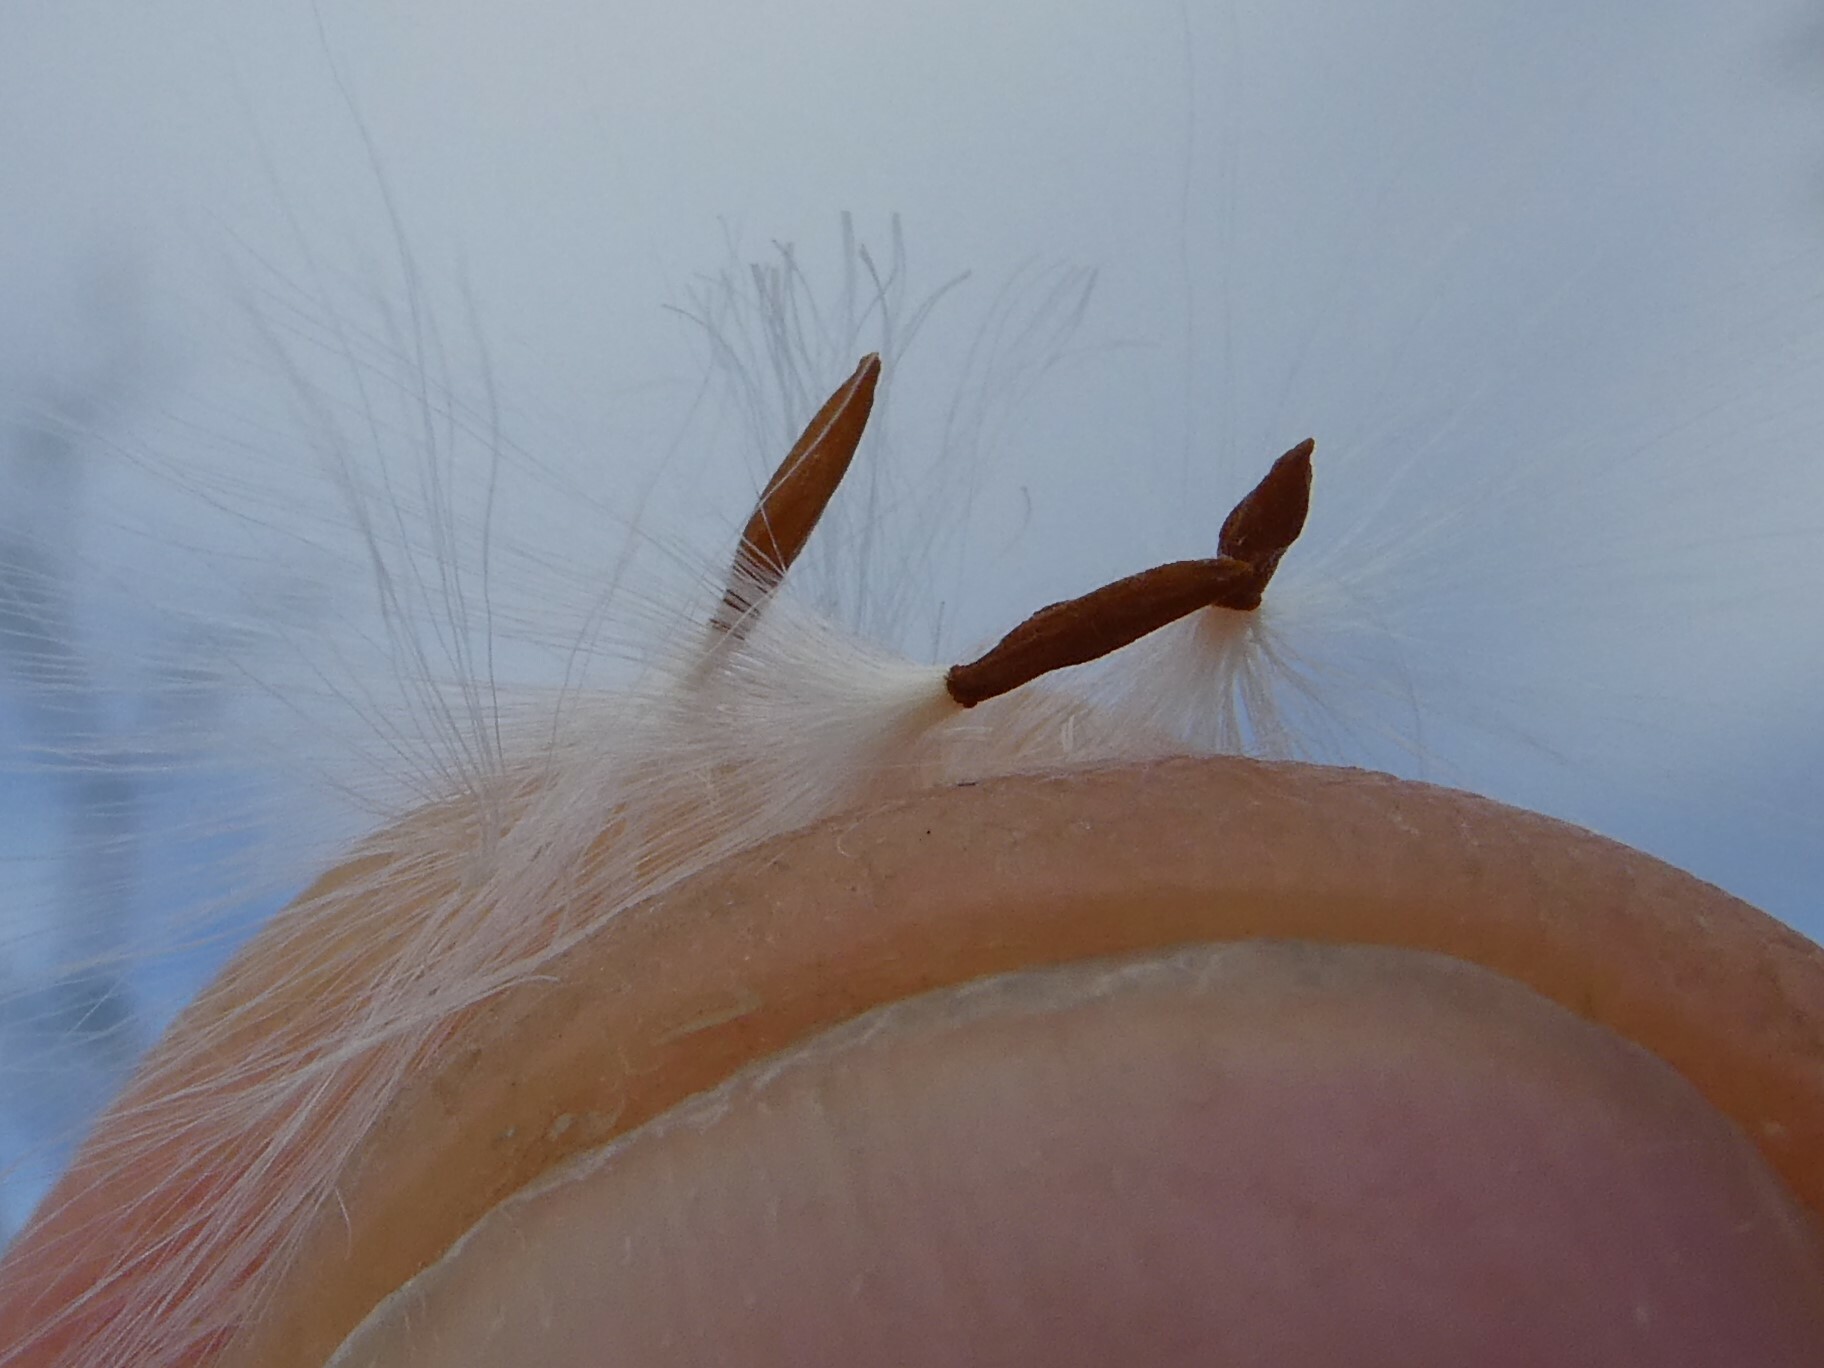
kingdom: Plantae
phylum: Tracheophyta
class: Magnoliopsida
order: Gentianales
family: Apocynaceae
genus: Apocynum
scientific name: Apocynum cannabinum
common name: Hemp dogbane
